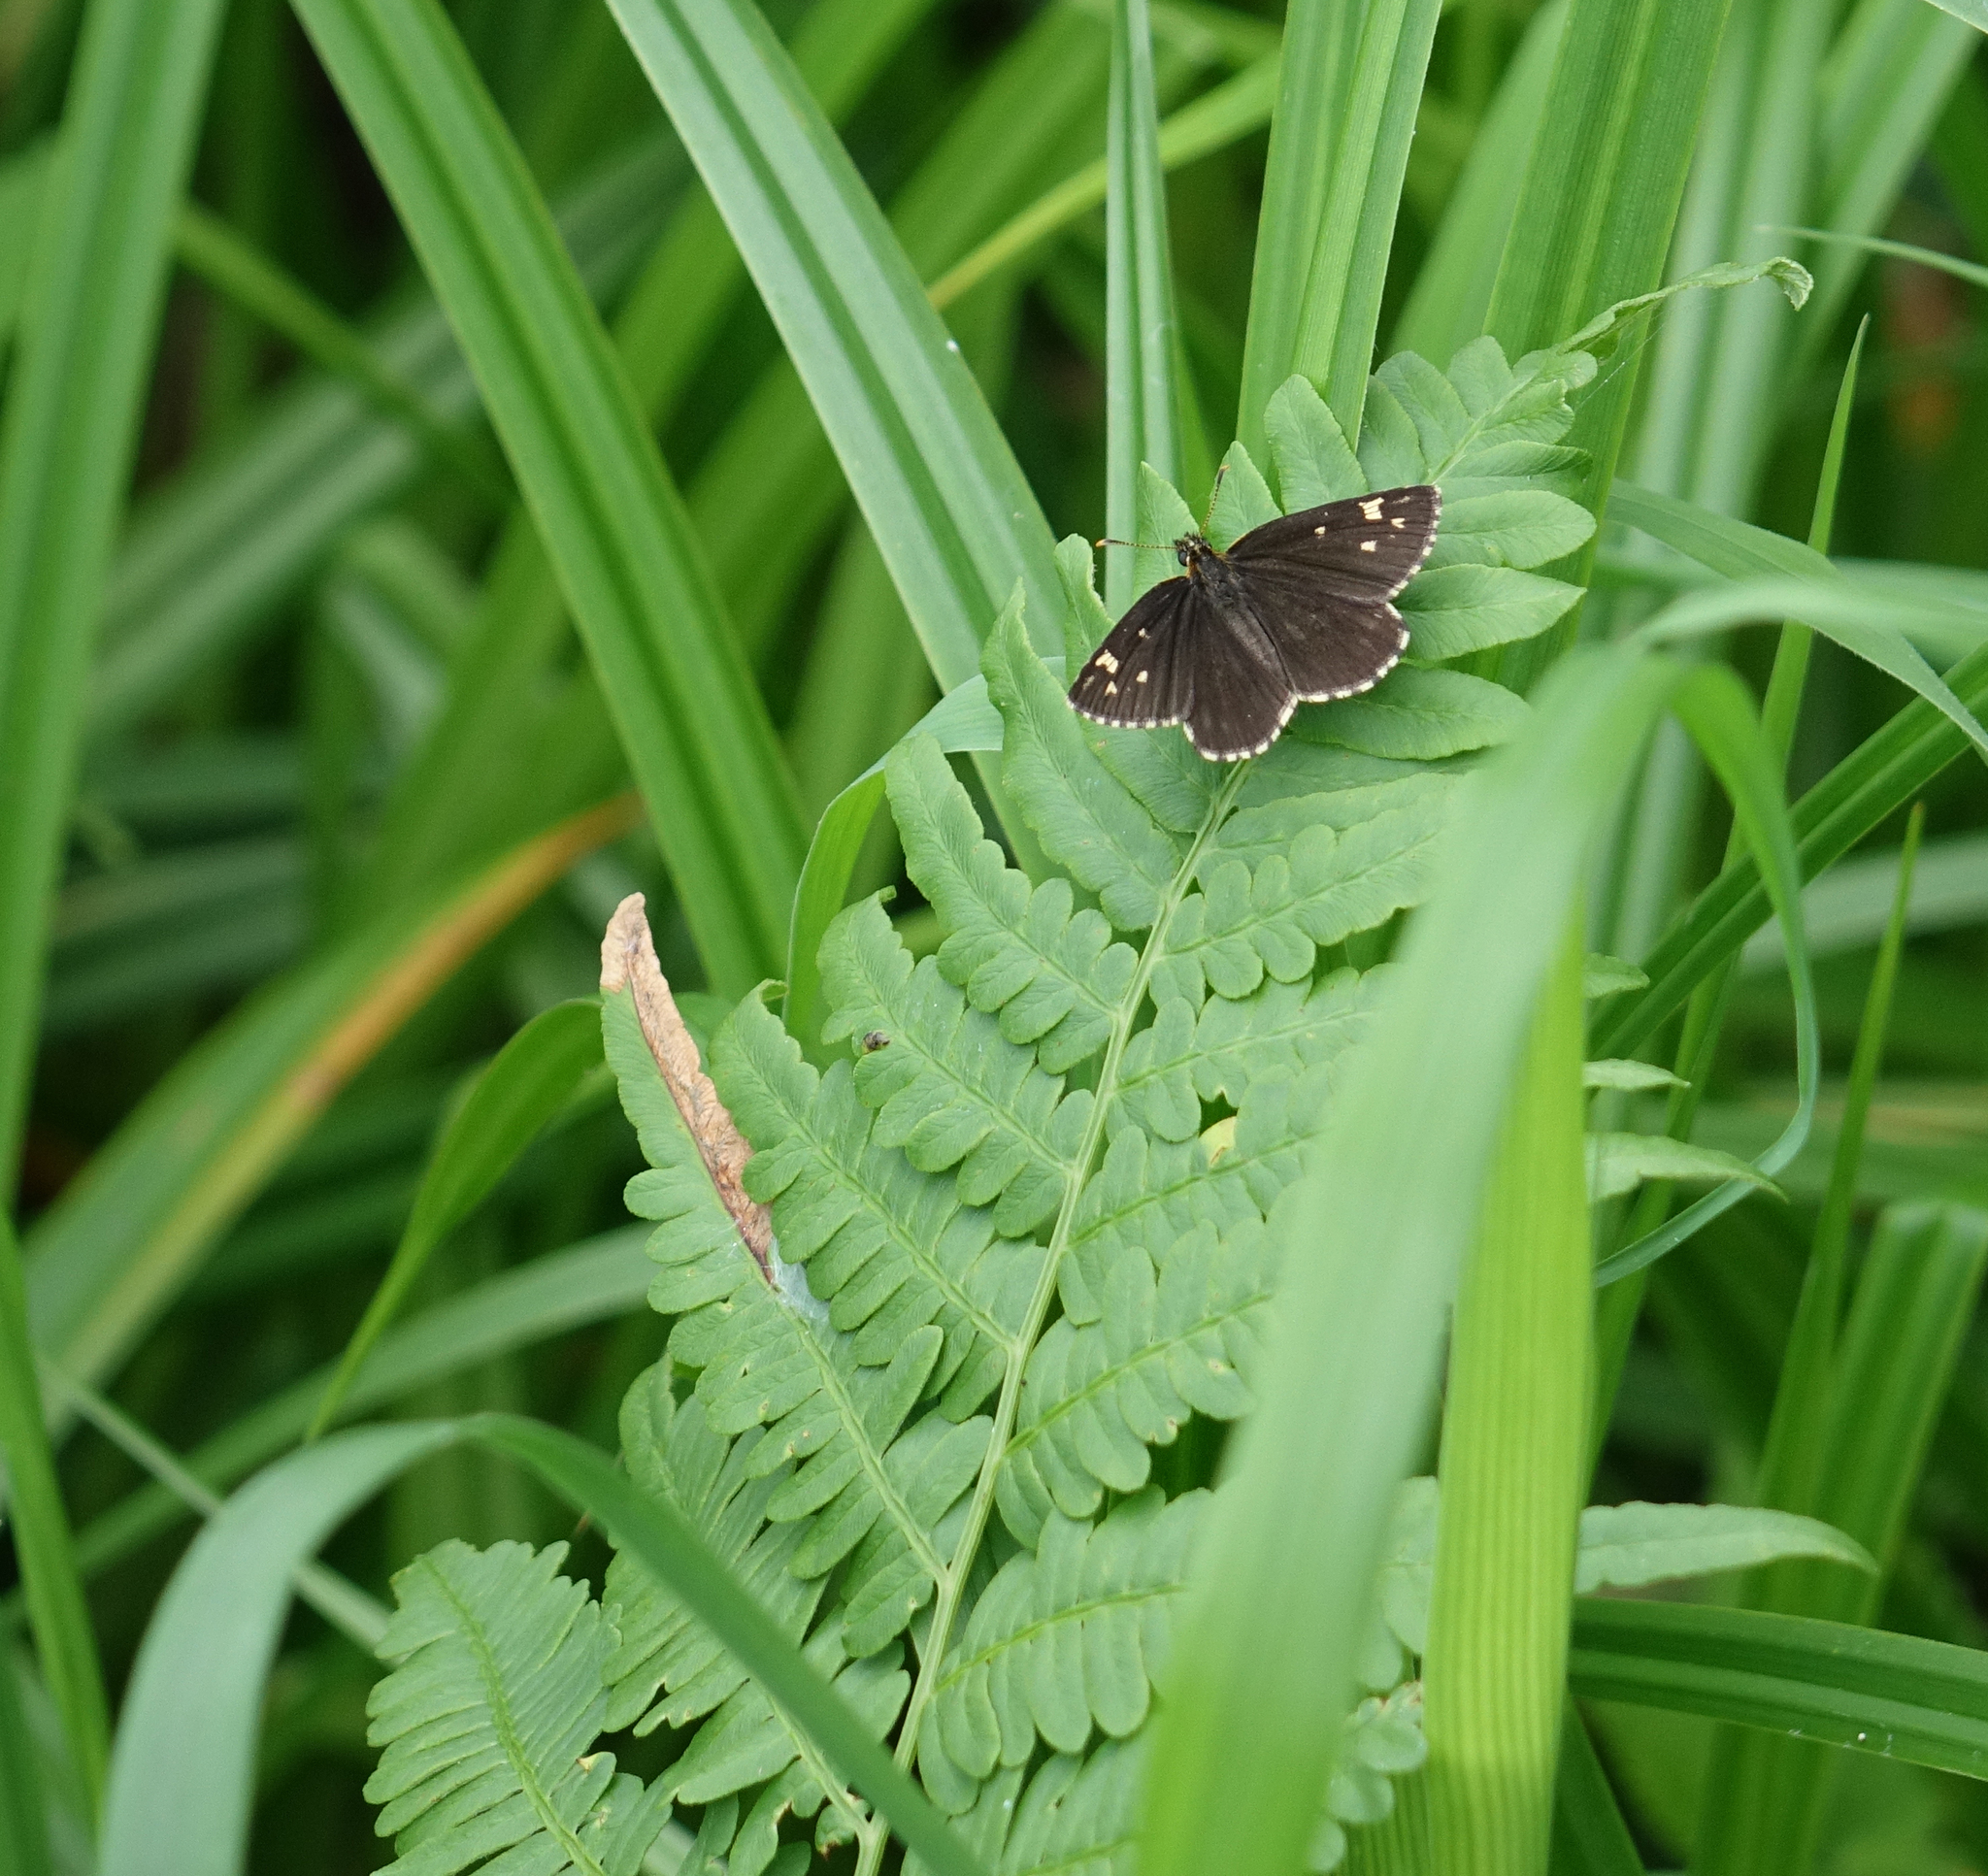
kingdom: Animalia
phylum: Arthropoda
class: Insecta
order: Lepidoptera
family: Hesperiidae
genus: Heteropterus
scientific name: Heteropterus morpheus
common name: Large chequered skipper
